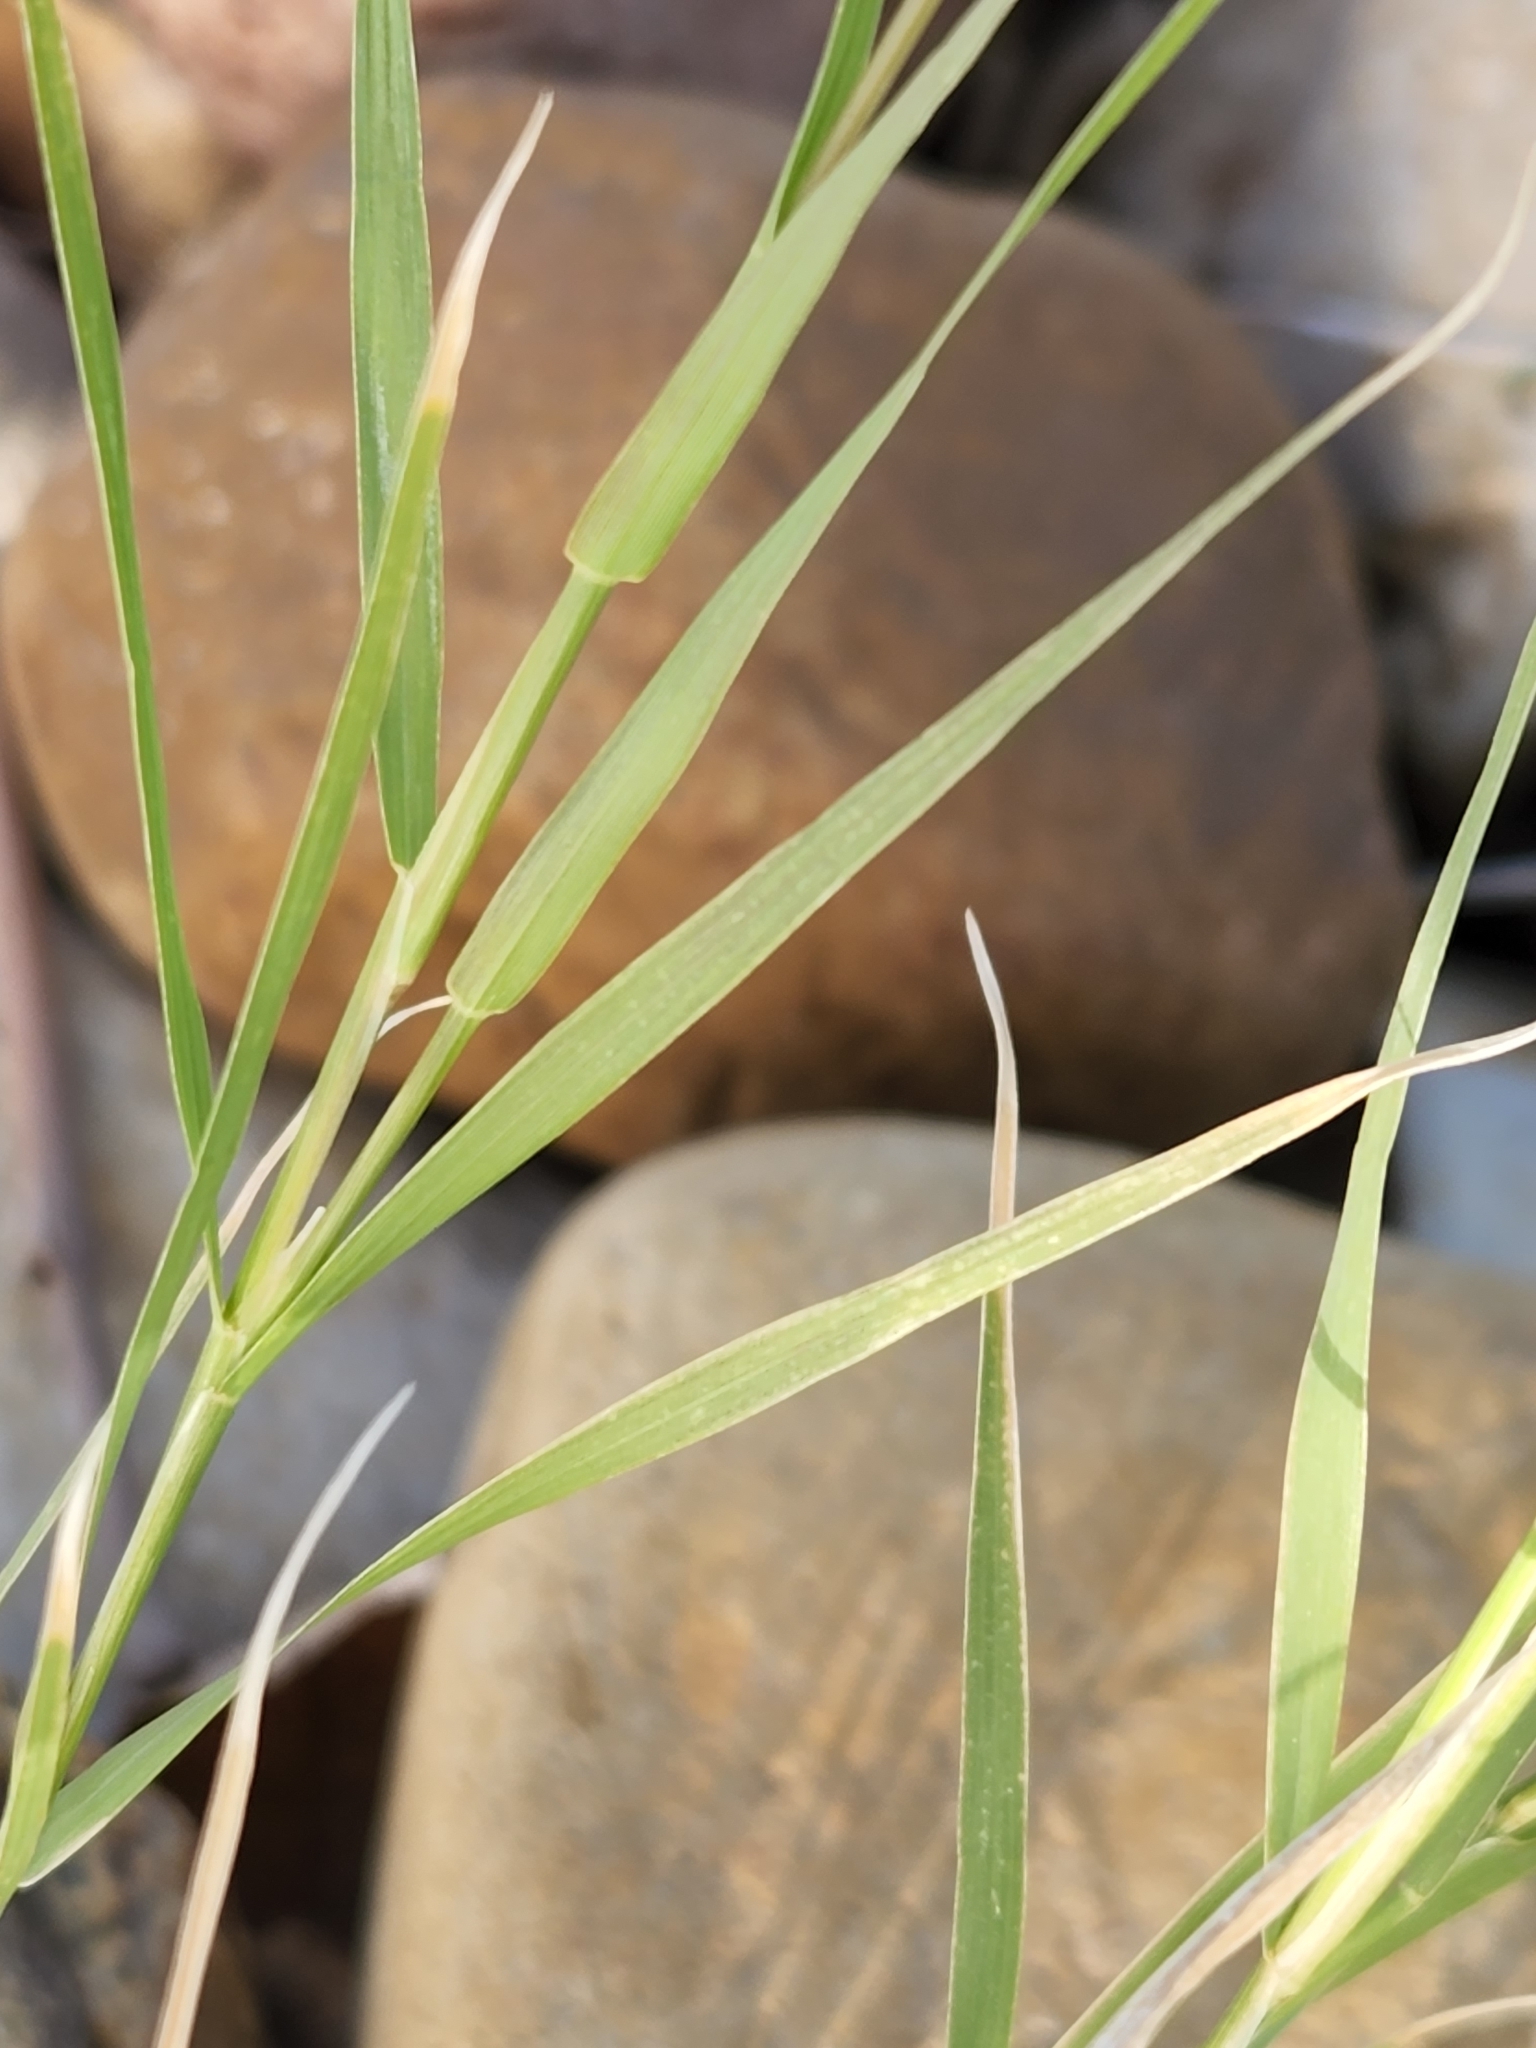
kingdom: Plantae
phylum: Tracheophyta
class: Liliopsida
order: Poales
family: Poaceae
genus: Cynodon
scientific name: Cynodon dactylon
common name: Bermuda grass
